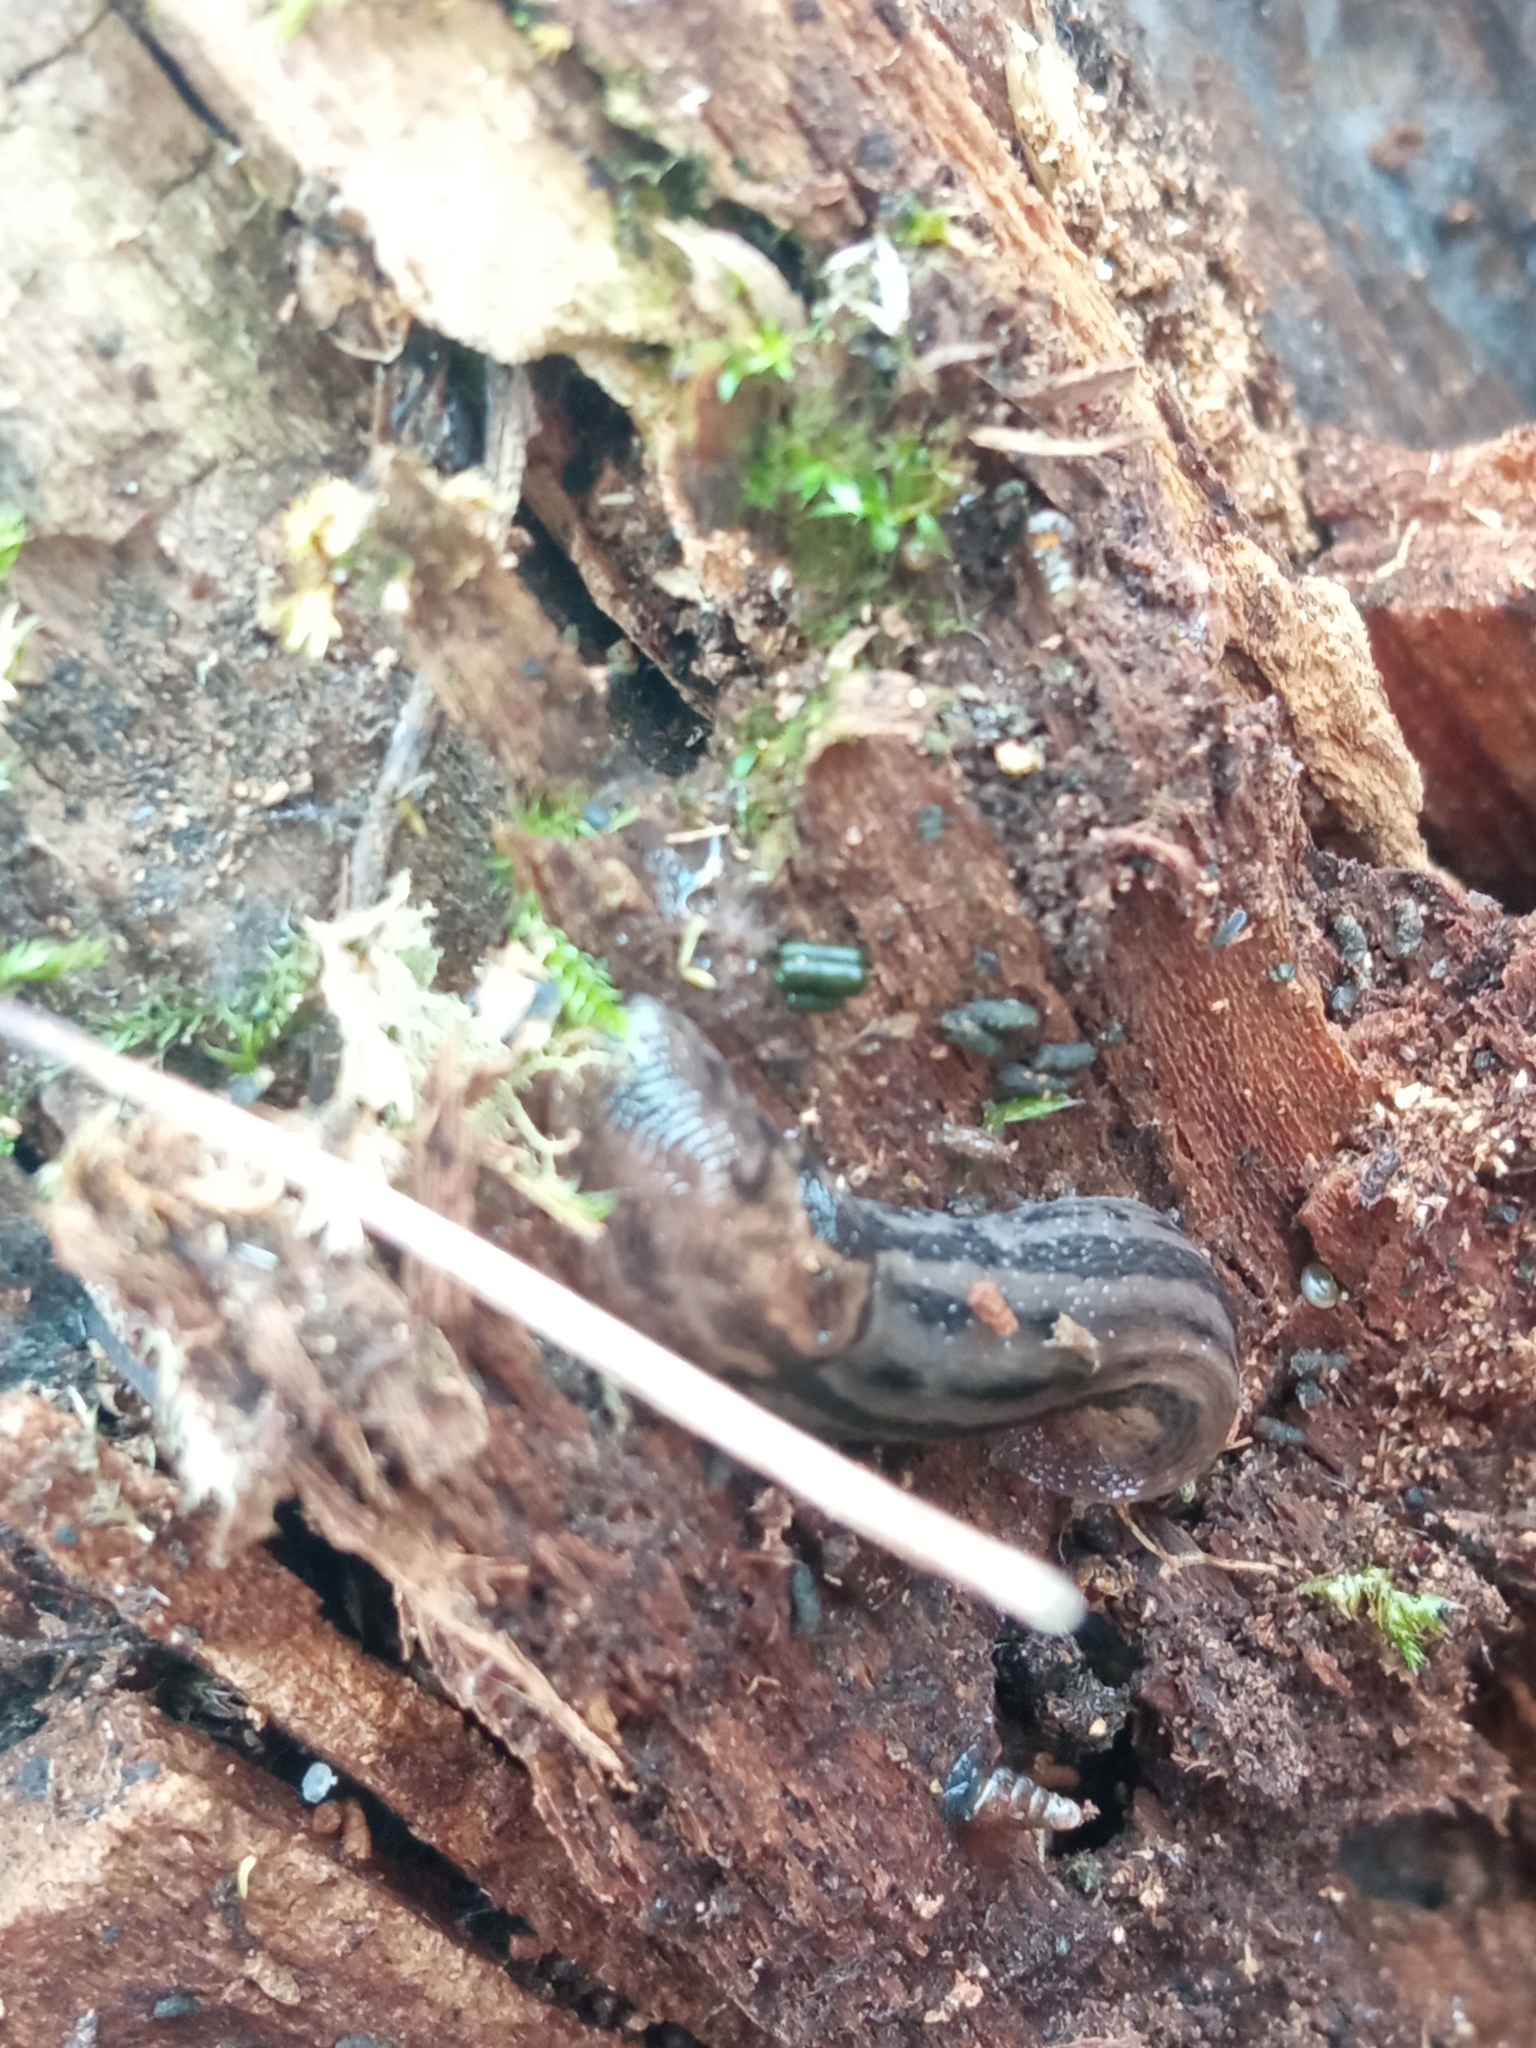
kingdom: Animalia
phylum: Mollusca
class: Gastropoda
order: Stylommatophora
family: Limacidae
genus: Limax
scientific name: Limax maximus
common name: Great grey slug
